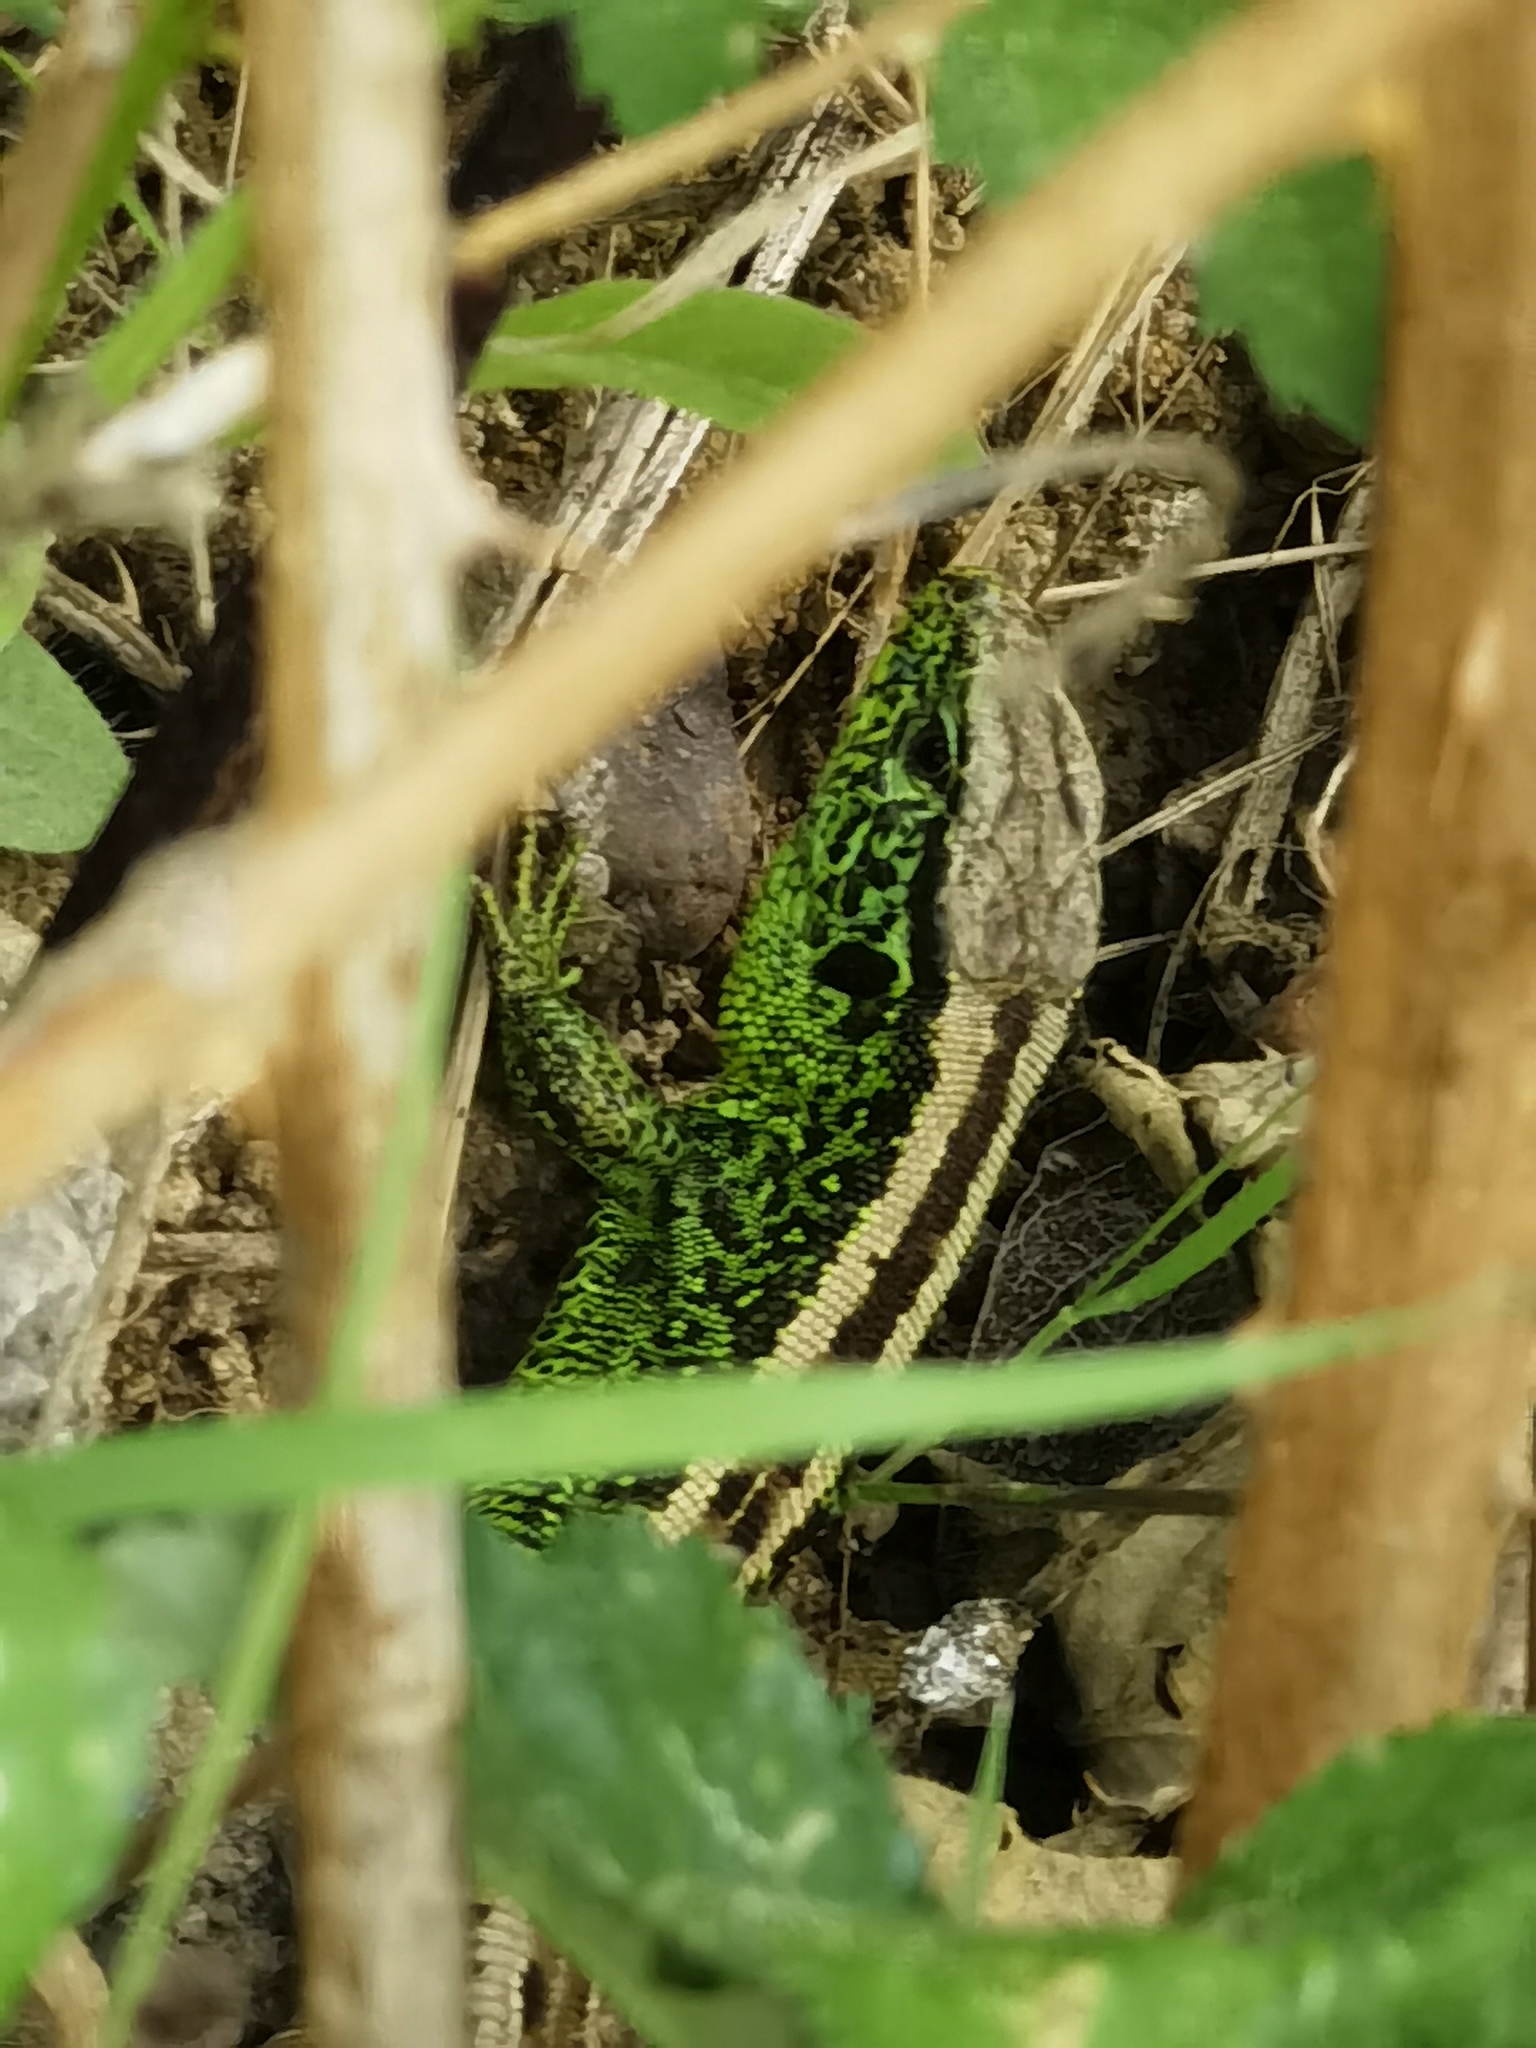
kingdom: Animalia
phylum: Chordata
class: Squamata
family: Lacertidae
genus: Lacerta
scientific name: Lacerta agilis
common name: Sand lizard
